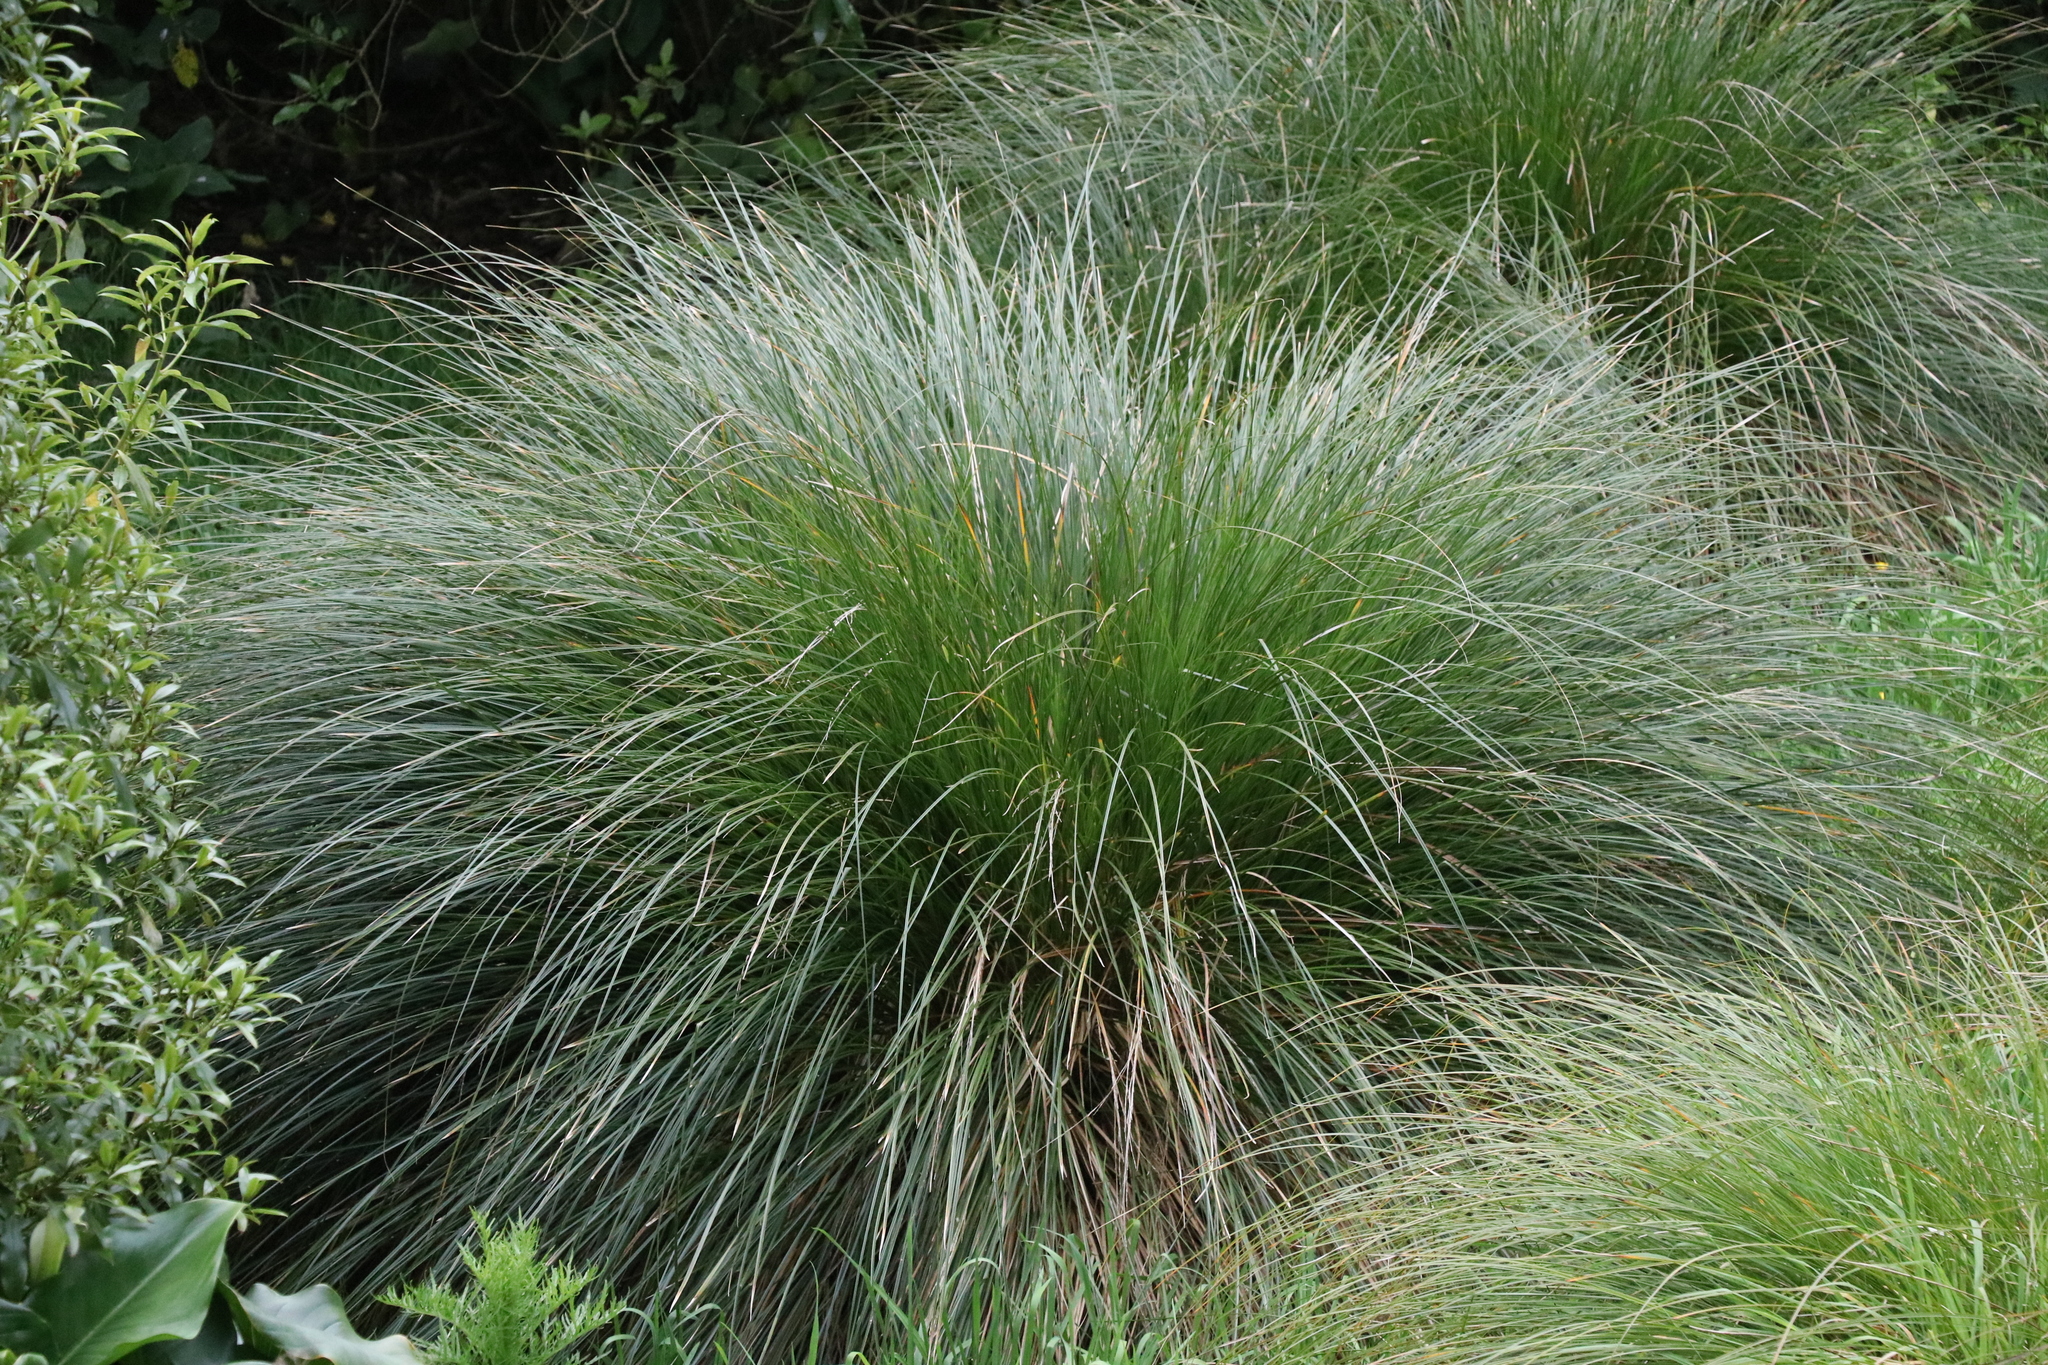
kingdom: Plantae
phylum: Tracheophyta
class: Liliopsida
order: Poales
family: Cyperaceae
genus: Carex
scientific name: Carex secta
